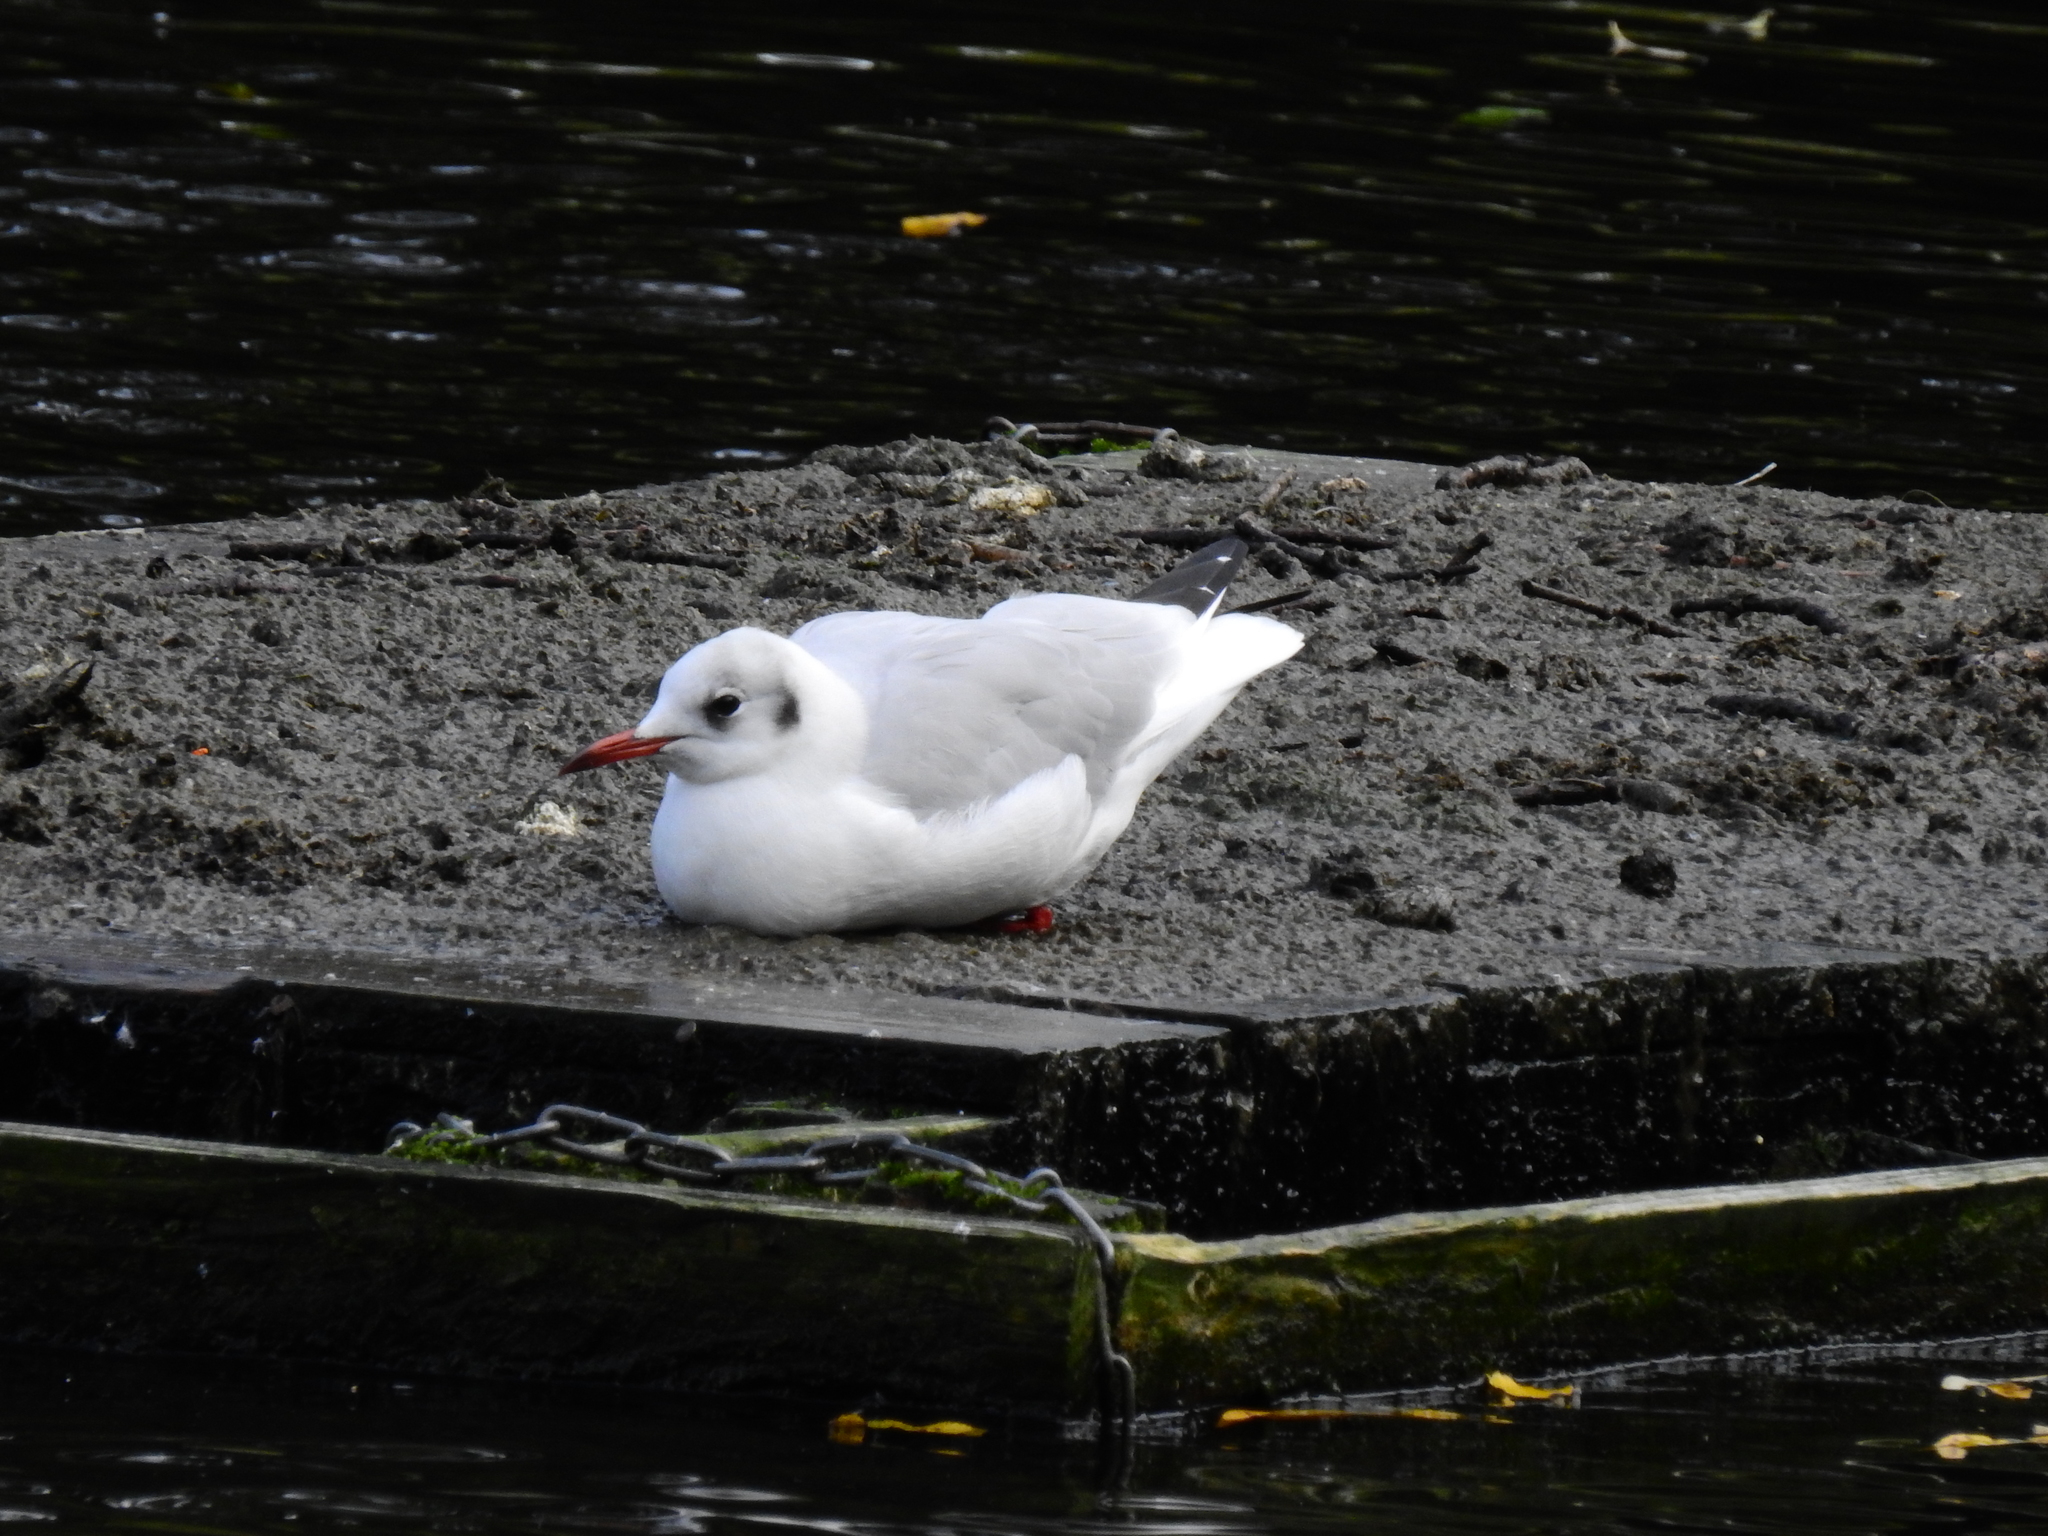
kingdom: Animalia
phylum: Chordata
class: Aves
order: Charadriiformes
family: Laridae
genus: Chroicocephalus
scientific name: Chroicocephalus ridibundus
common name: Black-headed gull
